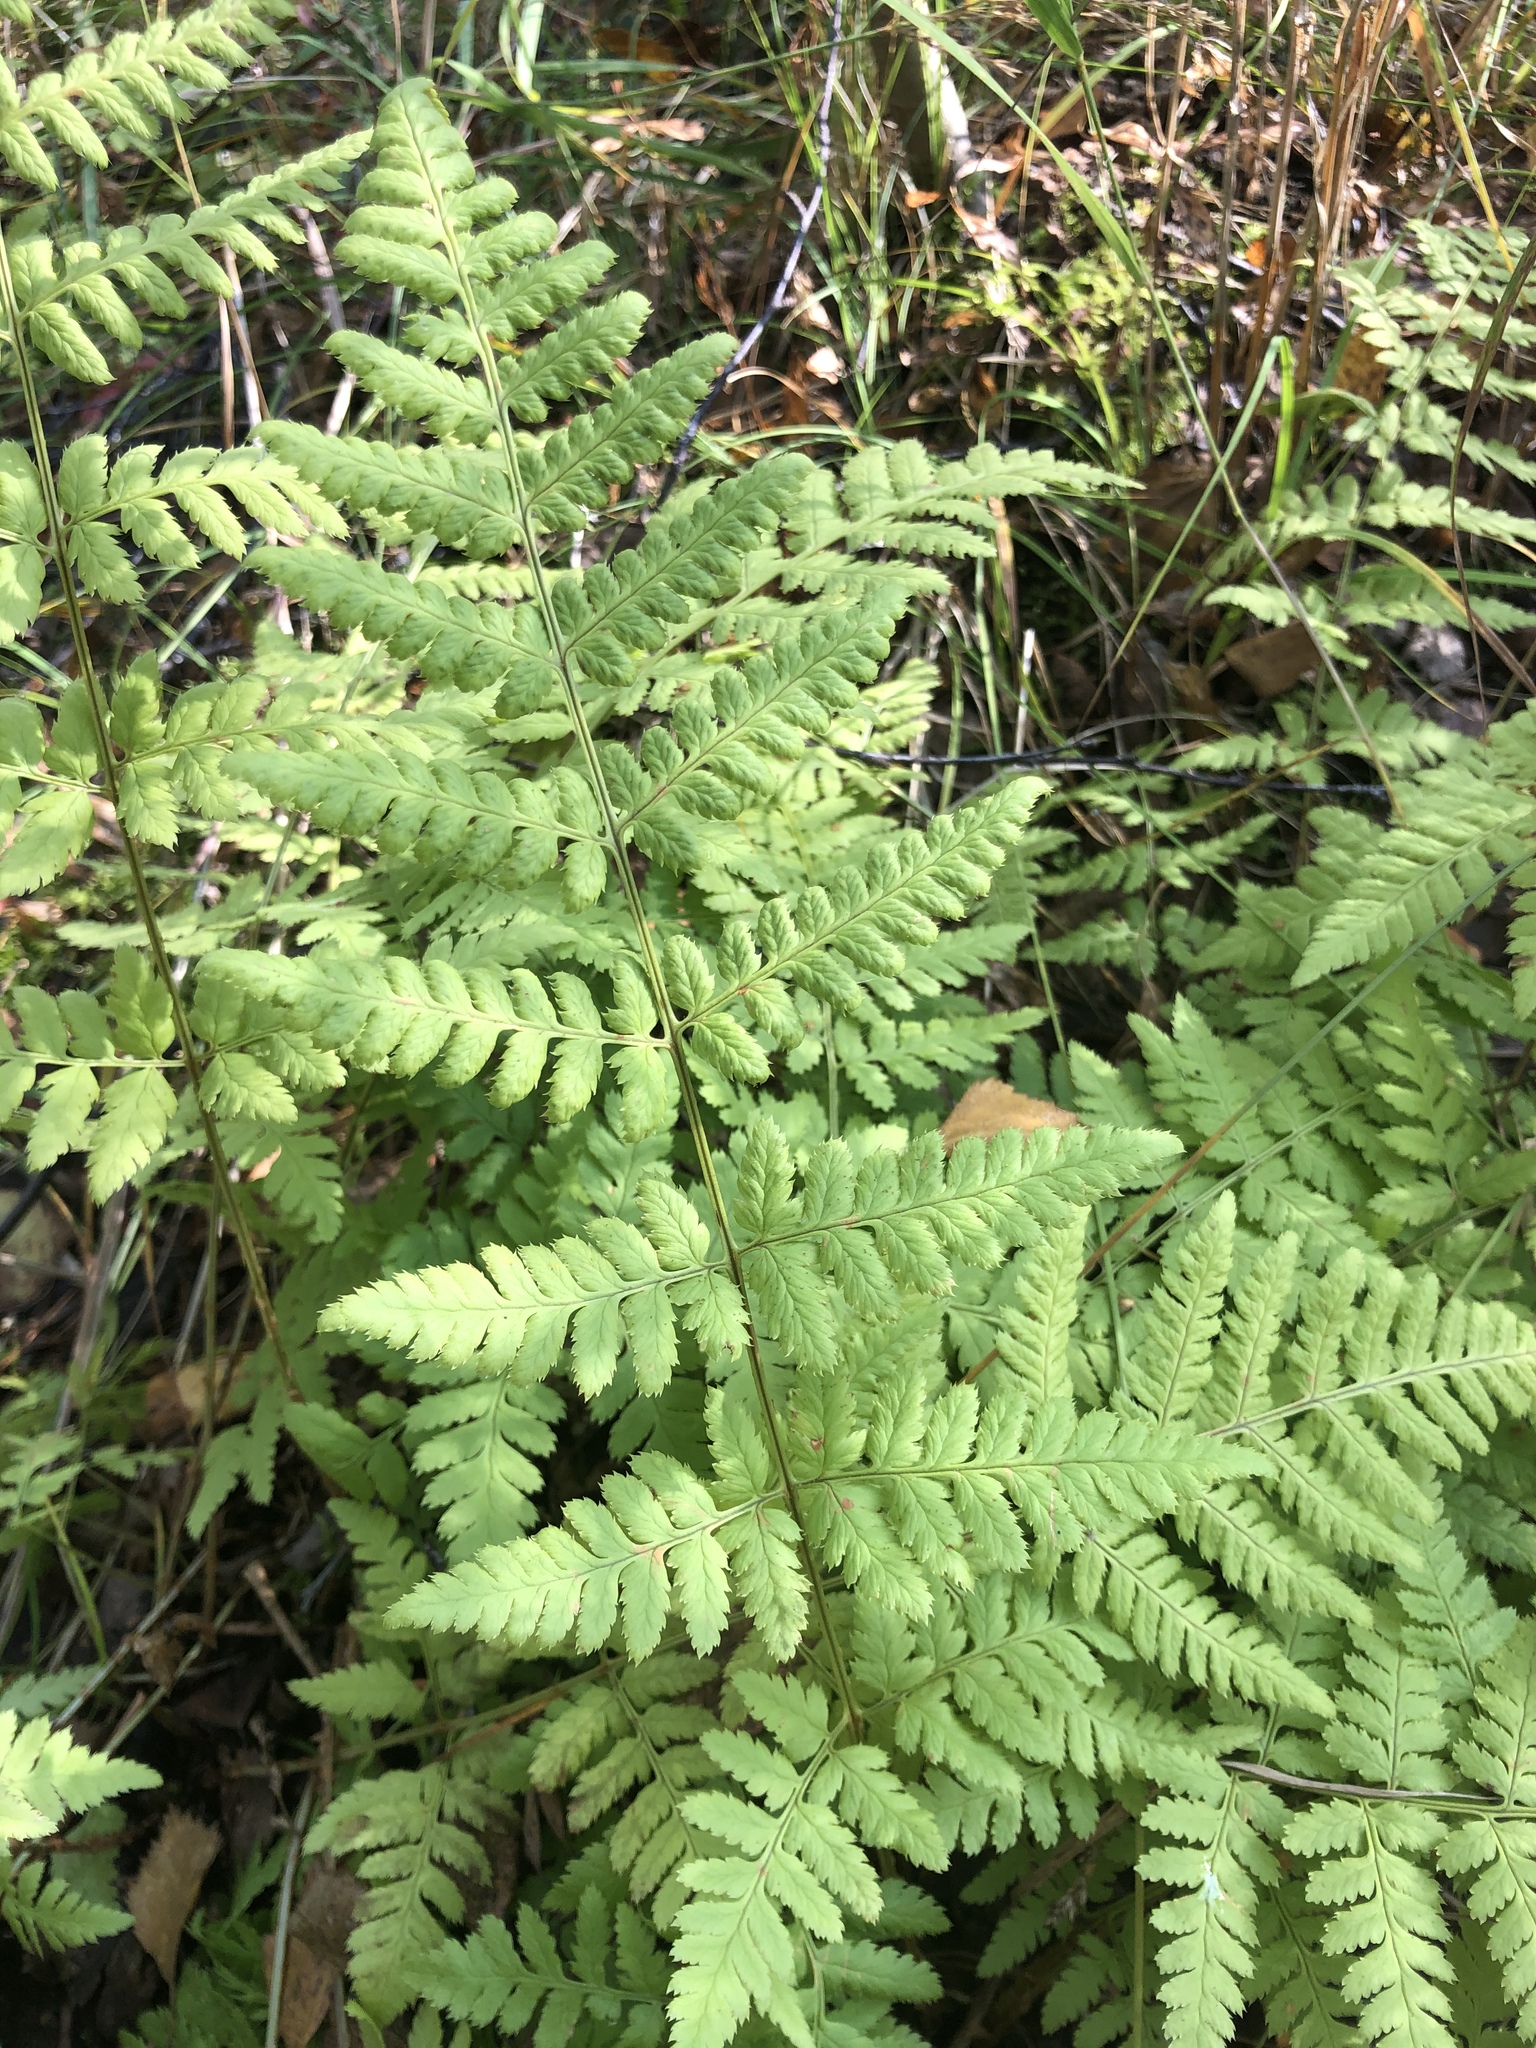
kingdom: Plantae
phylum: Tracheophyta
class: Polypodiopsida
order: Polypodiales
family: Dryopteridaceae
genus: Dryopteris
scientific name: Dryopteris carthusiana
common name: Narrow buckler-fern
